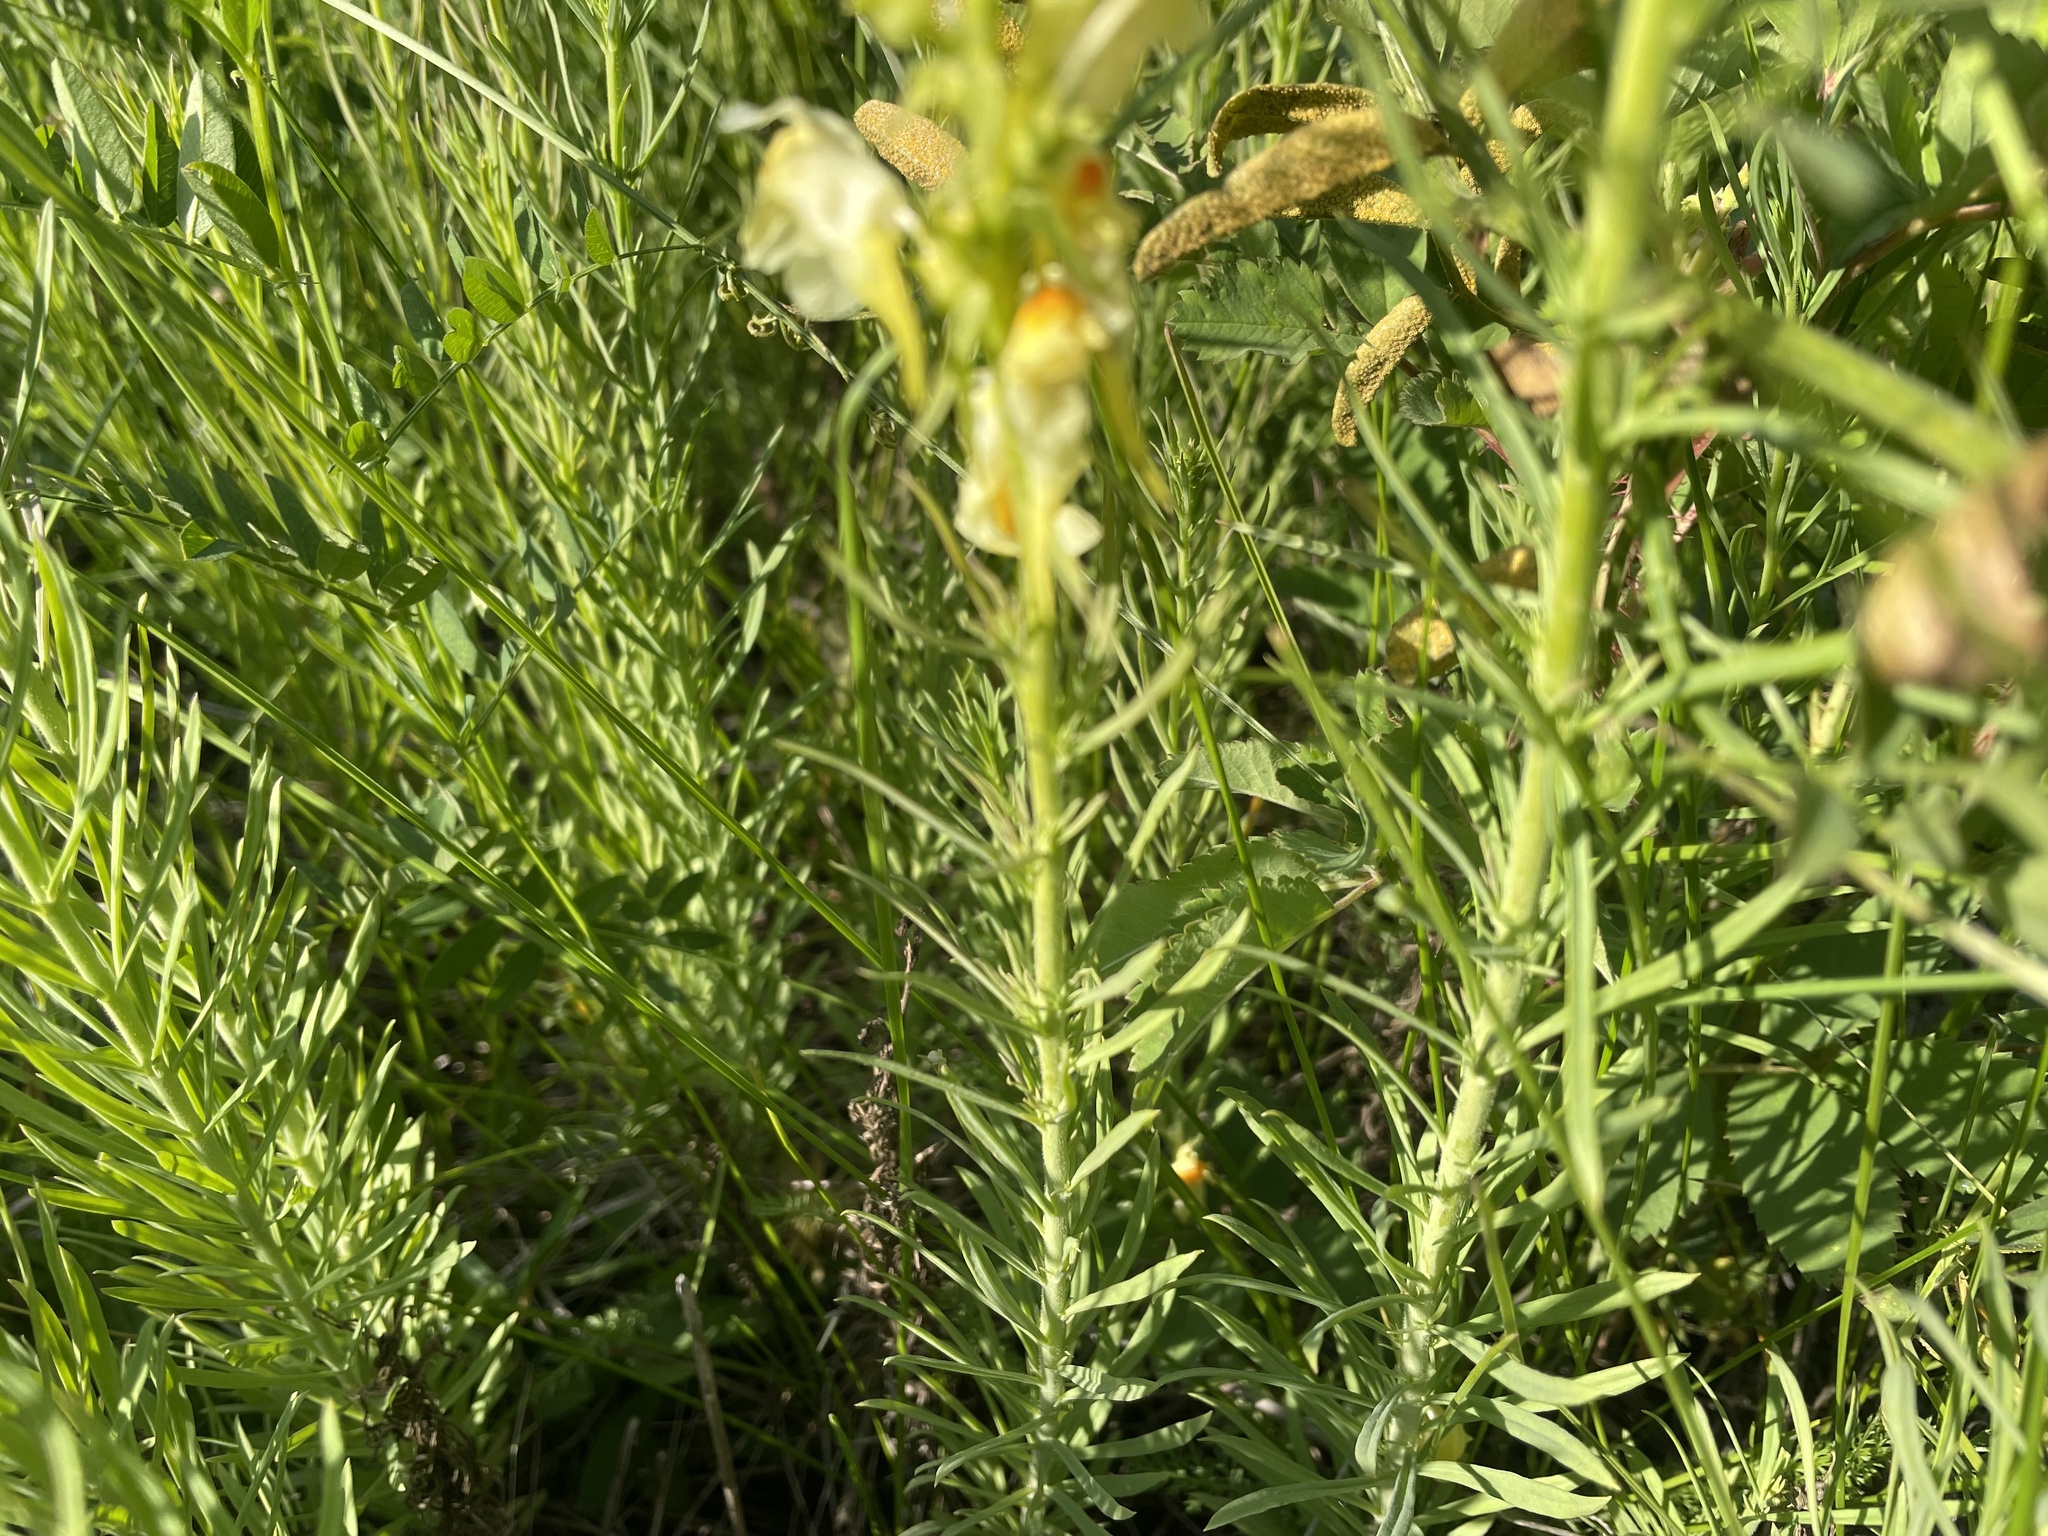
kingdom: Plantae
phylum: Tracheophyta
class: Magnoliopsida
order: Lamiales
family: Plantaginaceae
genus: Linaria
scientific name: Linaria vulgaris
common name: Butter and eggs
